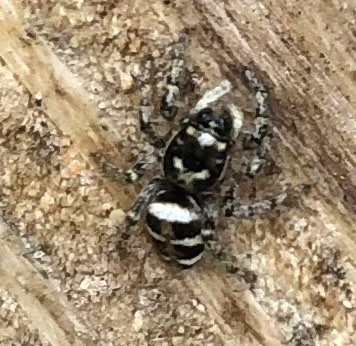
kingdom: Animalia
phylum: Arthropoda
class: Arachnida
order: Araneae
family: Salticidae
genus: Salticus
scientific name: Salticus scenicus
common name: Zebra jumper
